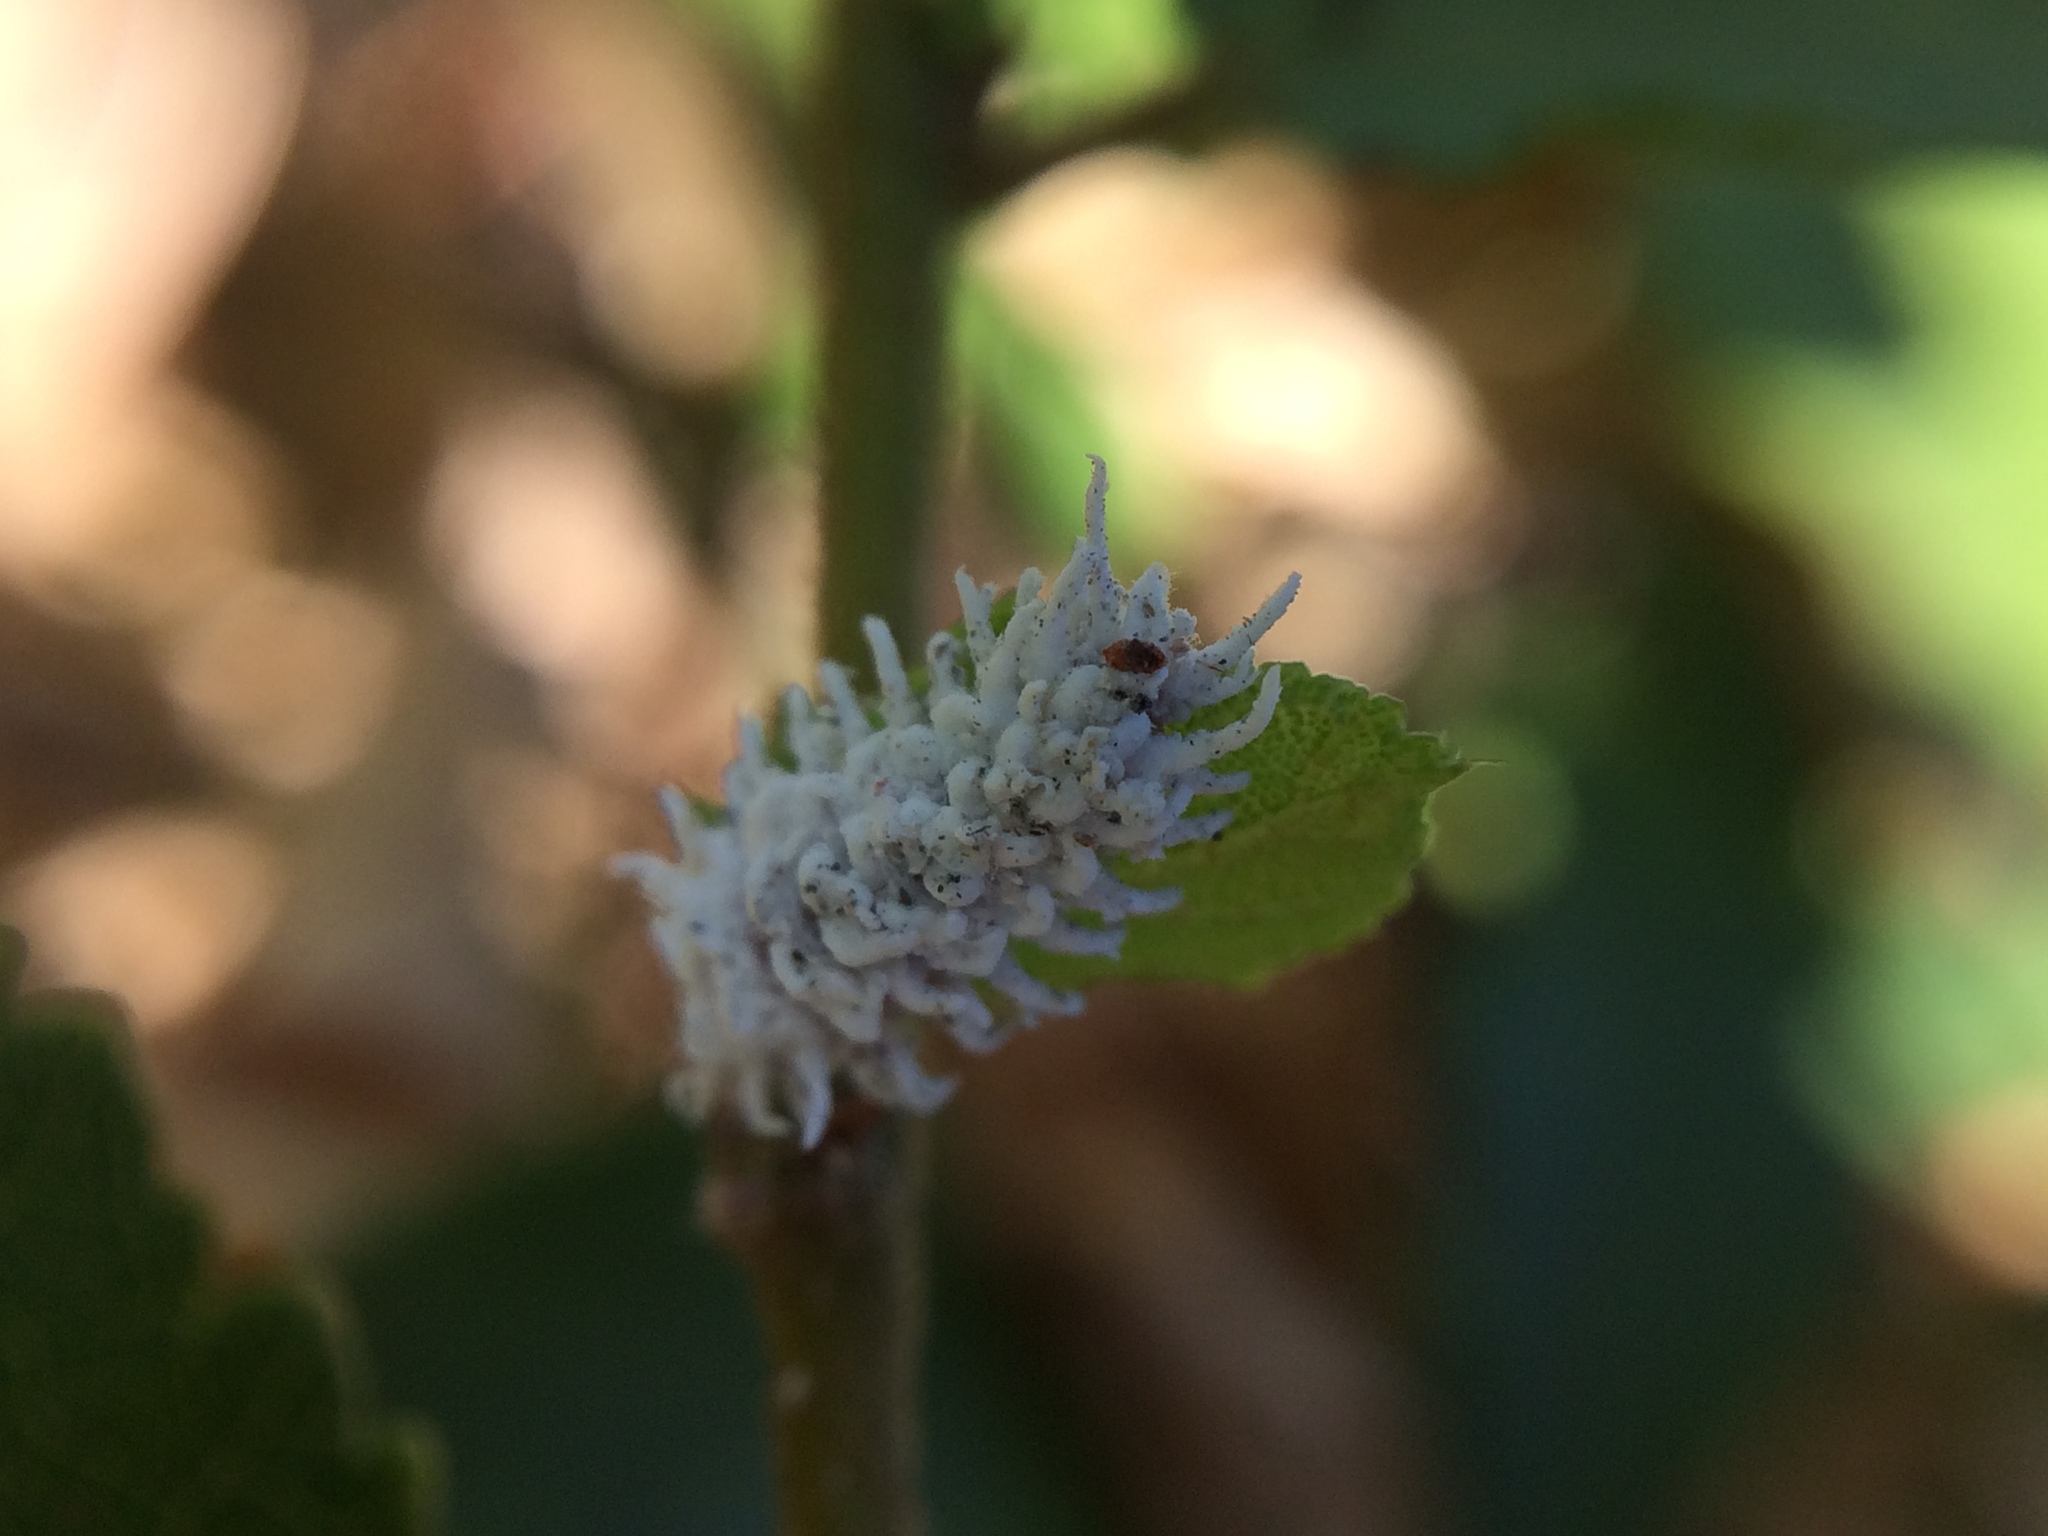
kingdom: Animalia
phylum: Arthropoda
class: Insecta
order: Coleoptera
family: Coccinellidae
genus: Cryptolaemus
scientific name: Cryptolaemus montrouzieri
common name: Mealybug destroyer
